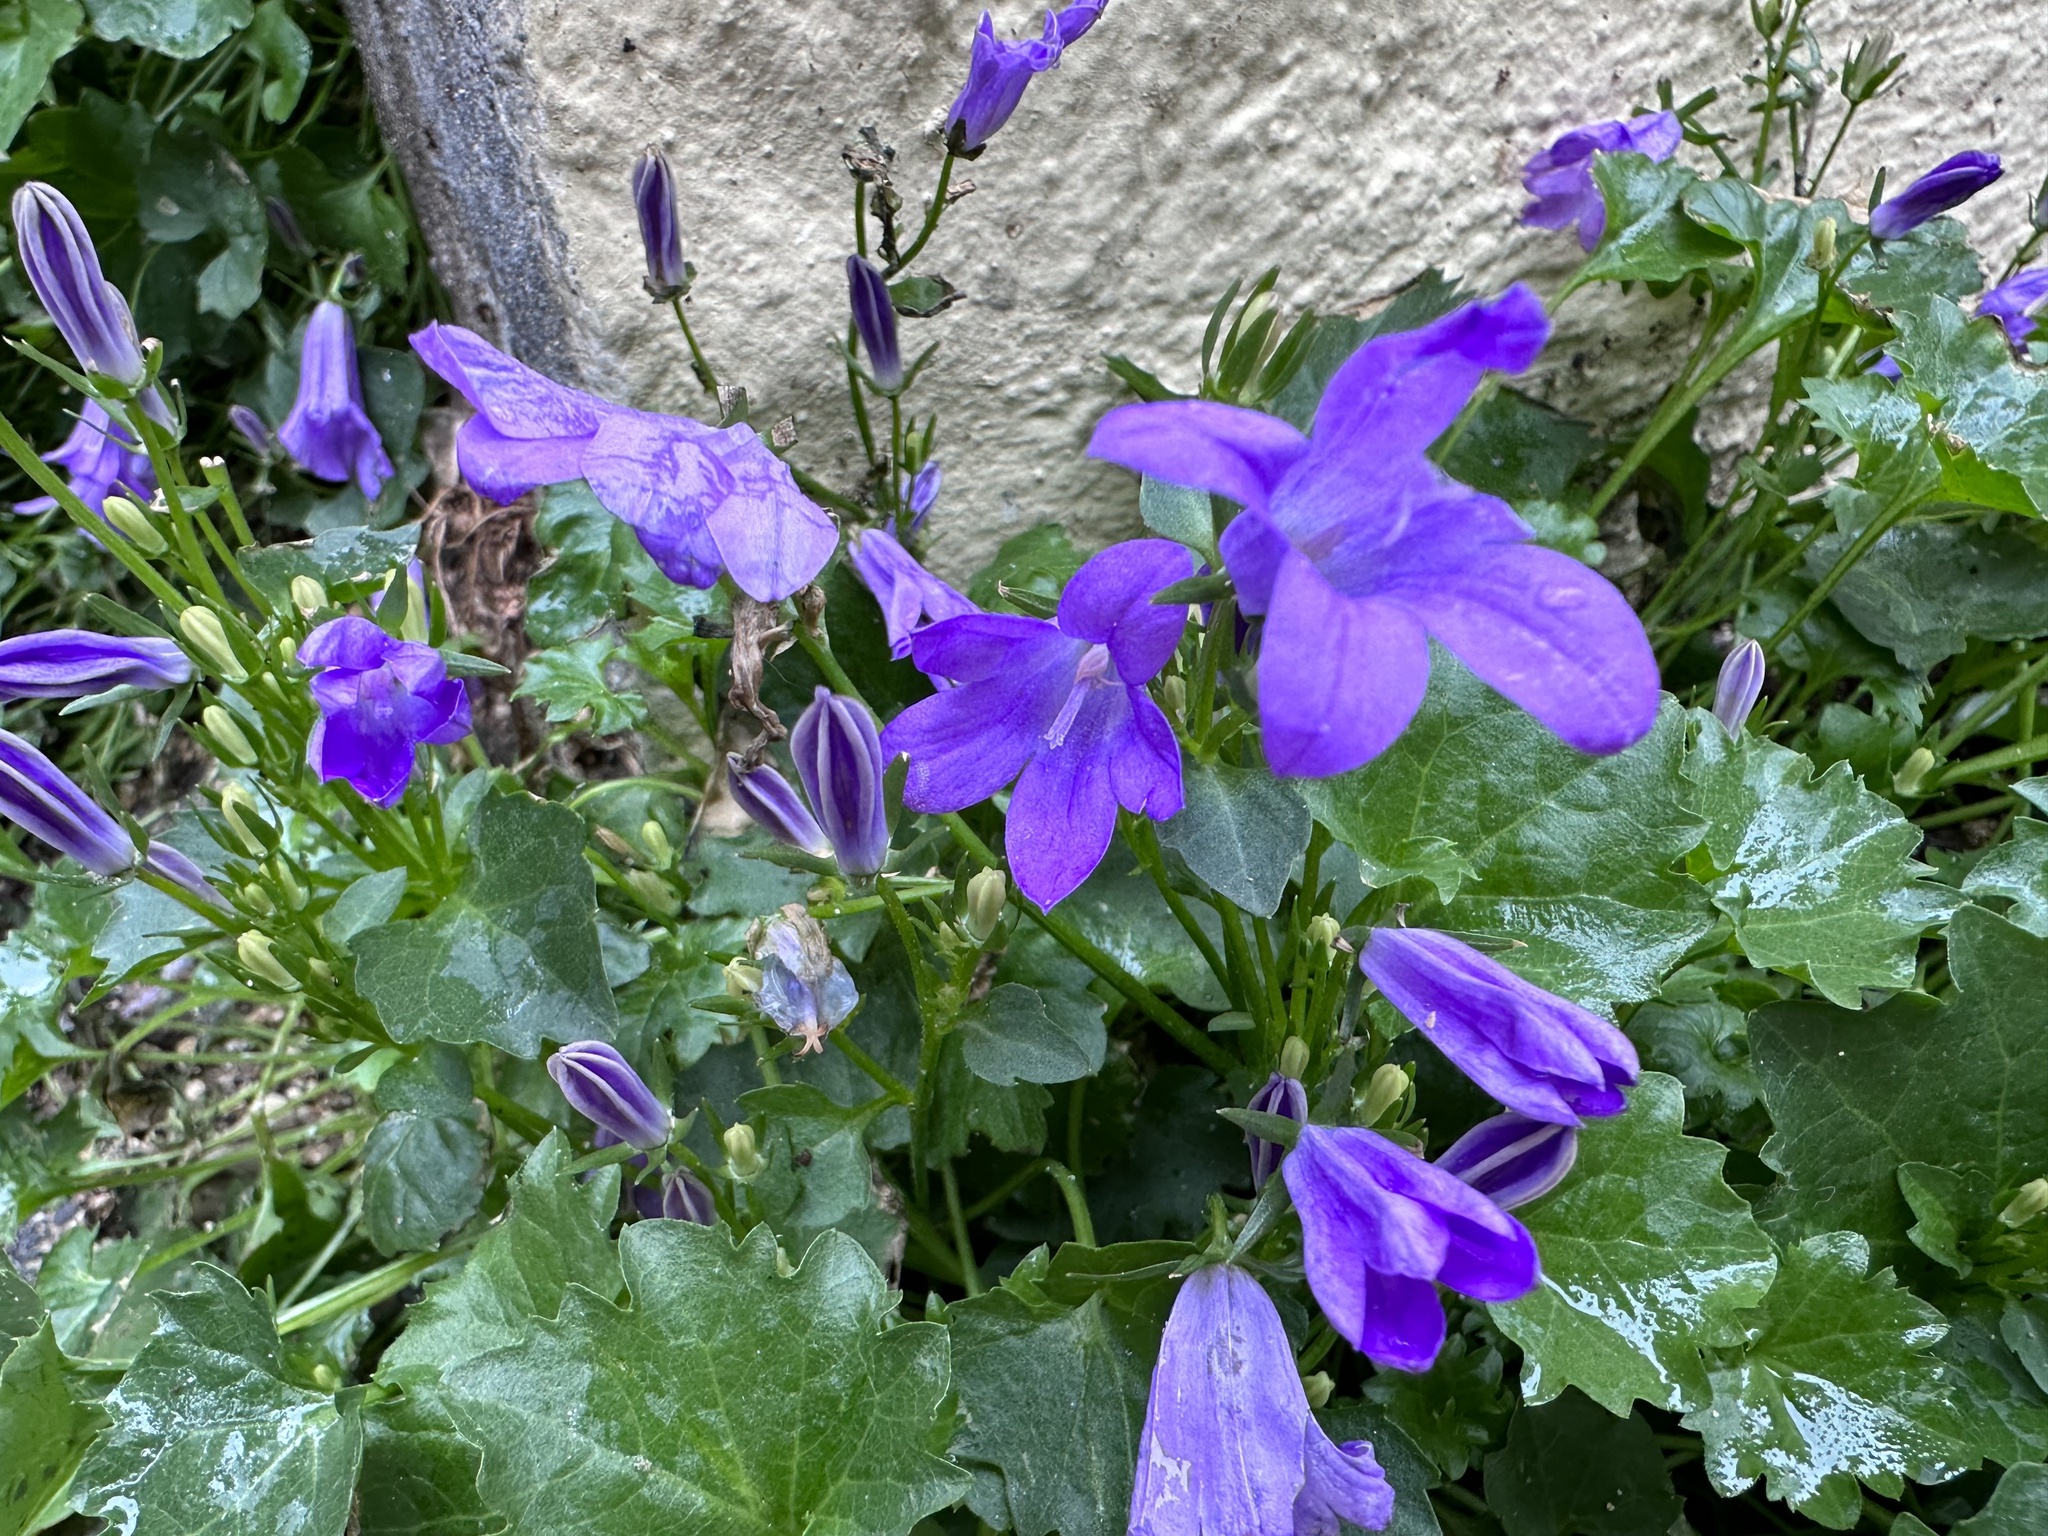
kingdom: Plantae
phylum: Tracheophyta
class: Magnoliopsida
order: Asterales
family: Campanulaceae
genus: Campanula
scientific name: Campanula portenschlagiana
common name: Adria bellflower
